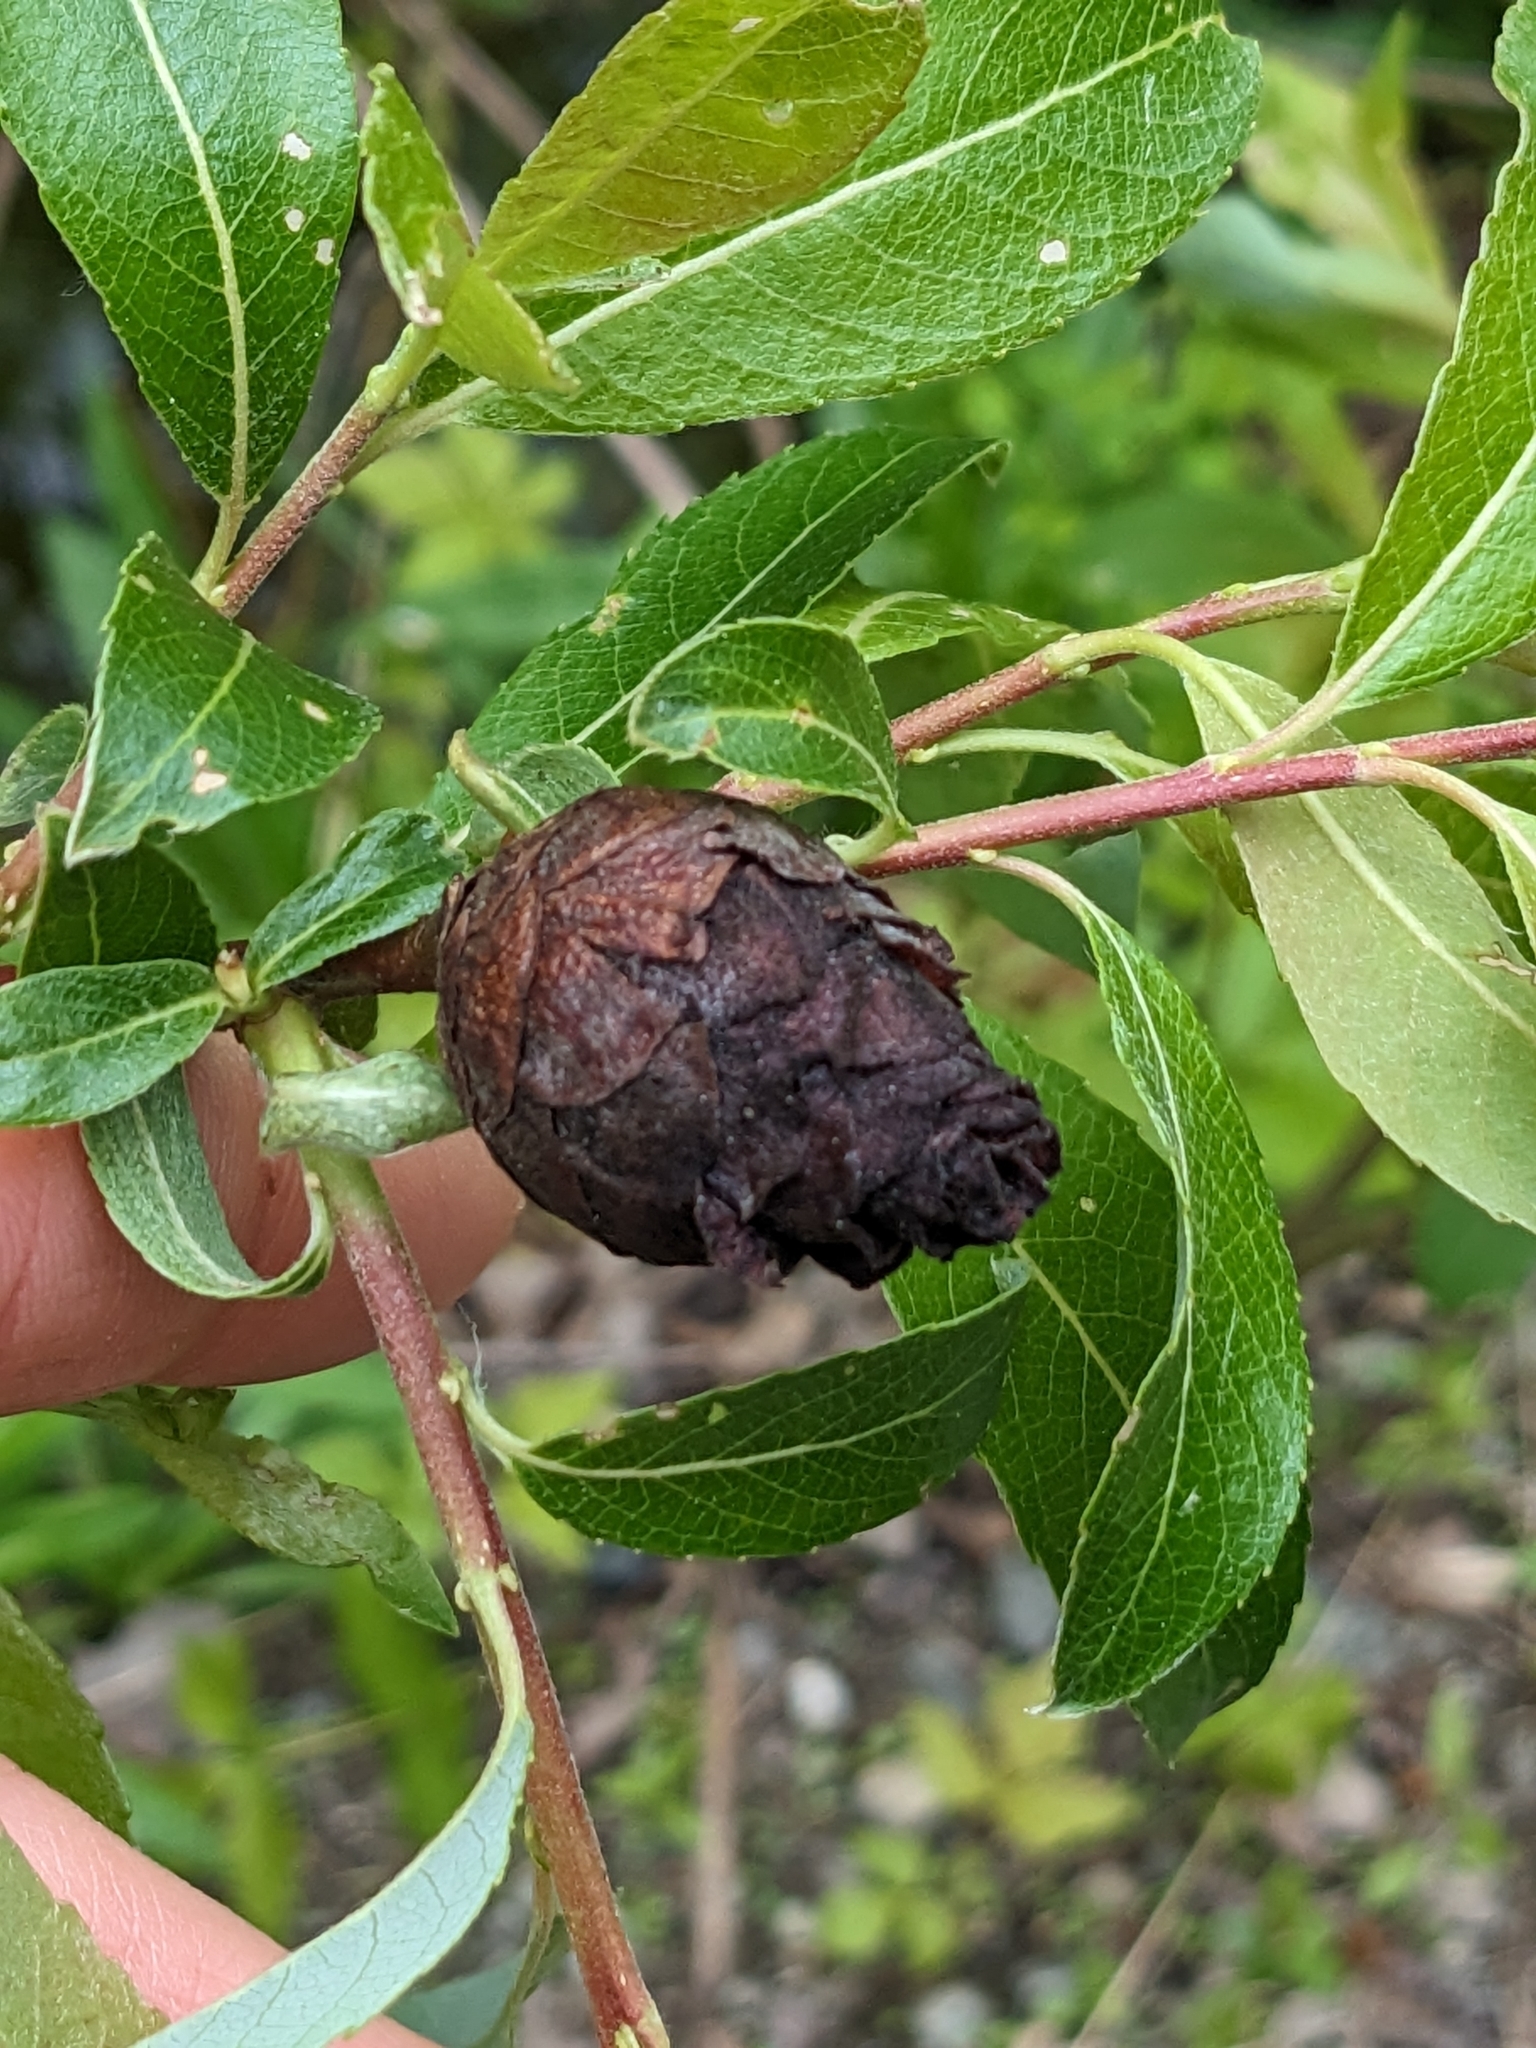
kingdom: Animalia
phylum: Arthropoda
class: Insecta
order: Diptera
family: Cecidomyiidae
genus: Rabdophaga
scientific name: Rabdophaga strobiloides
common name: Willow pinecone gall midge
